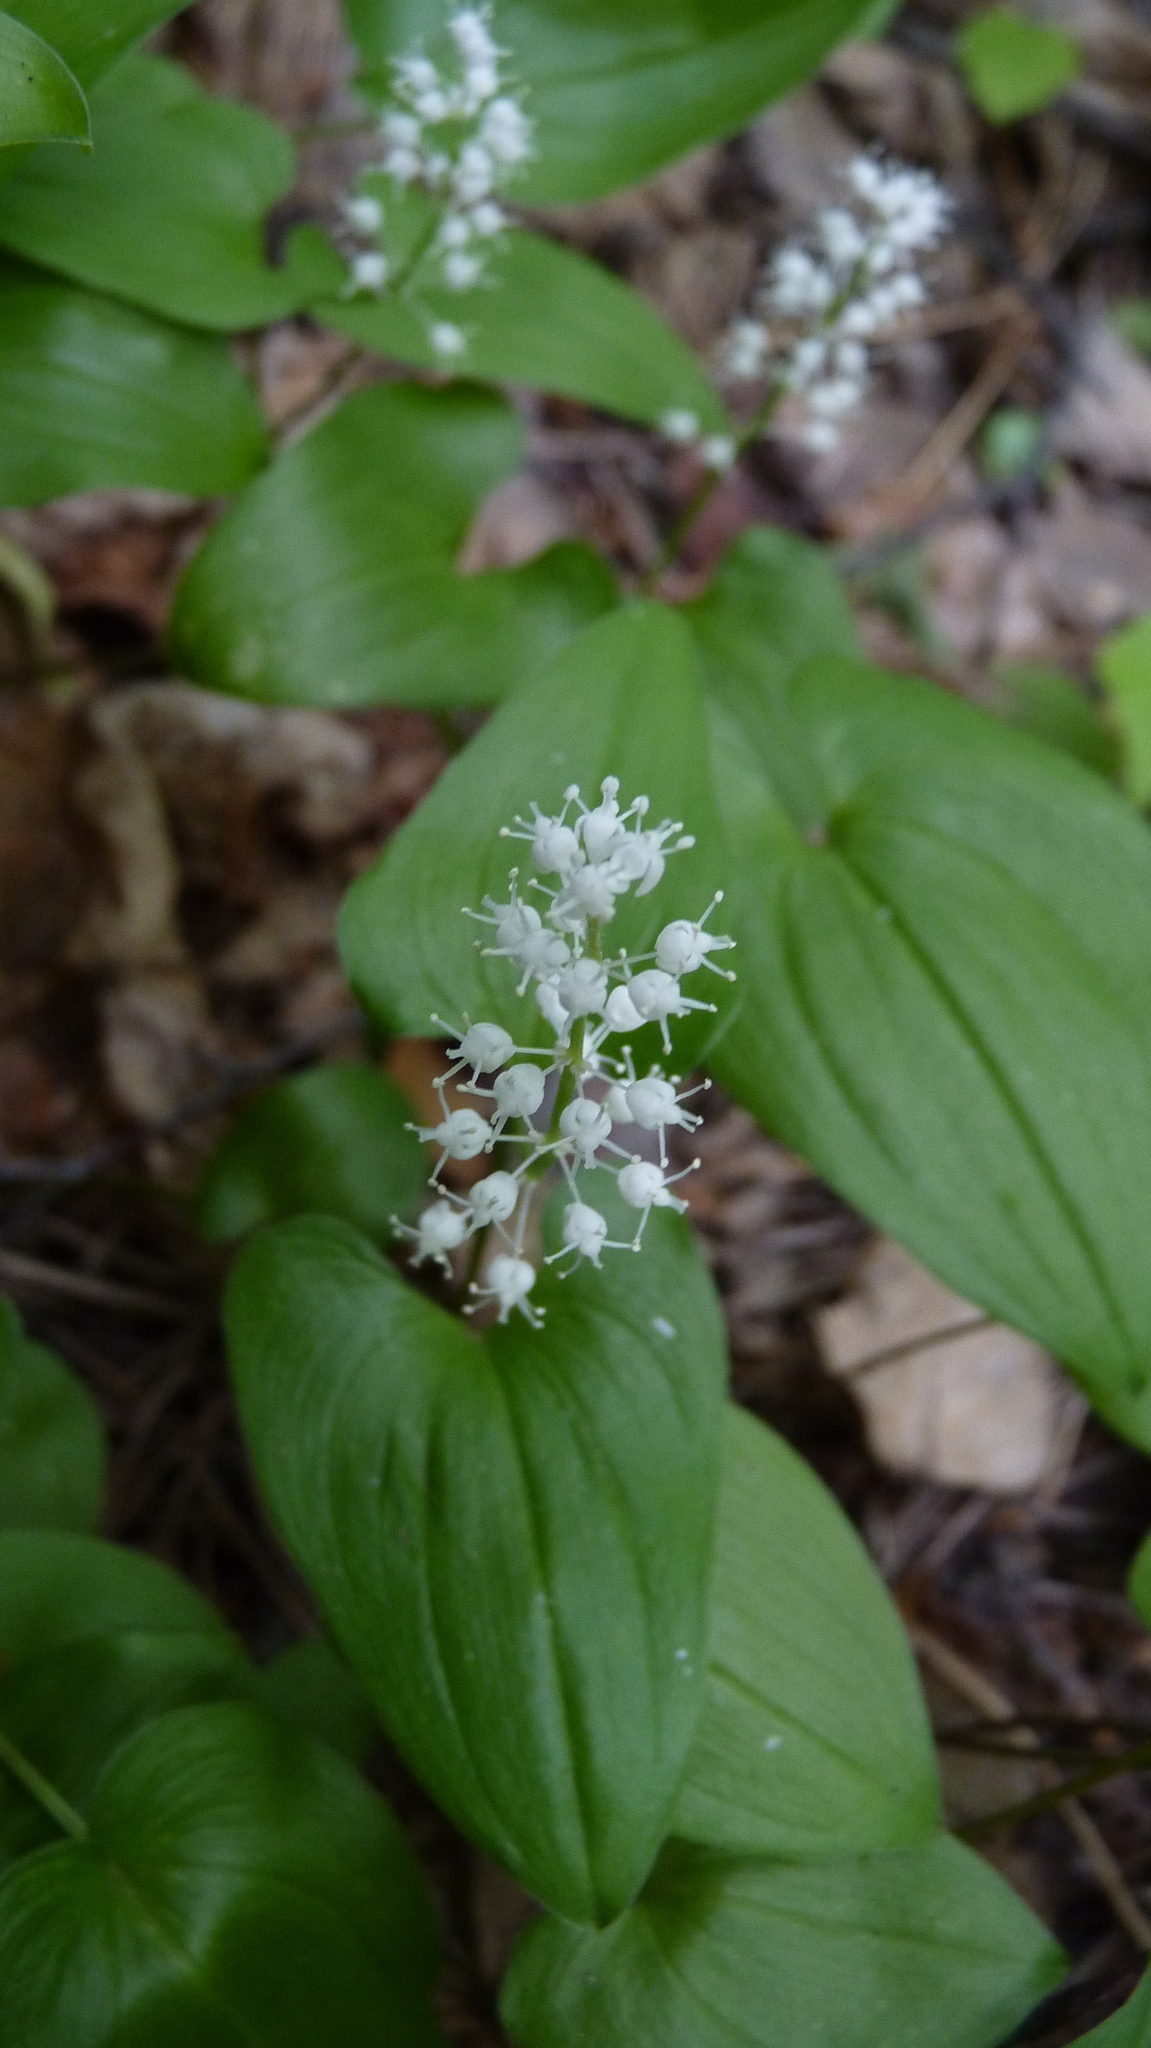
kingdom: Plantae
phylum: Tracheophyta
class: Liliopsida
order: Asparagales
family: Asparagaceae
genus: Maianthemum
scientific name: Maianthemum bifolium
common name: May lily
